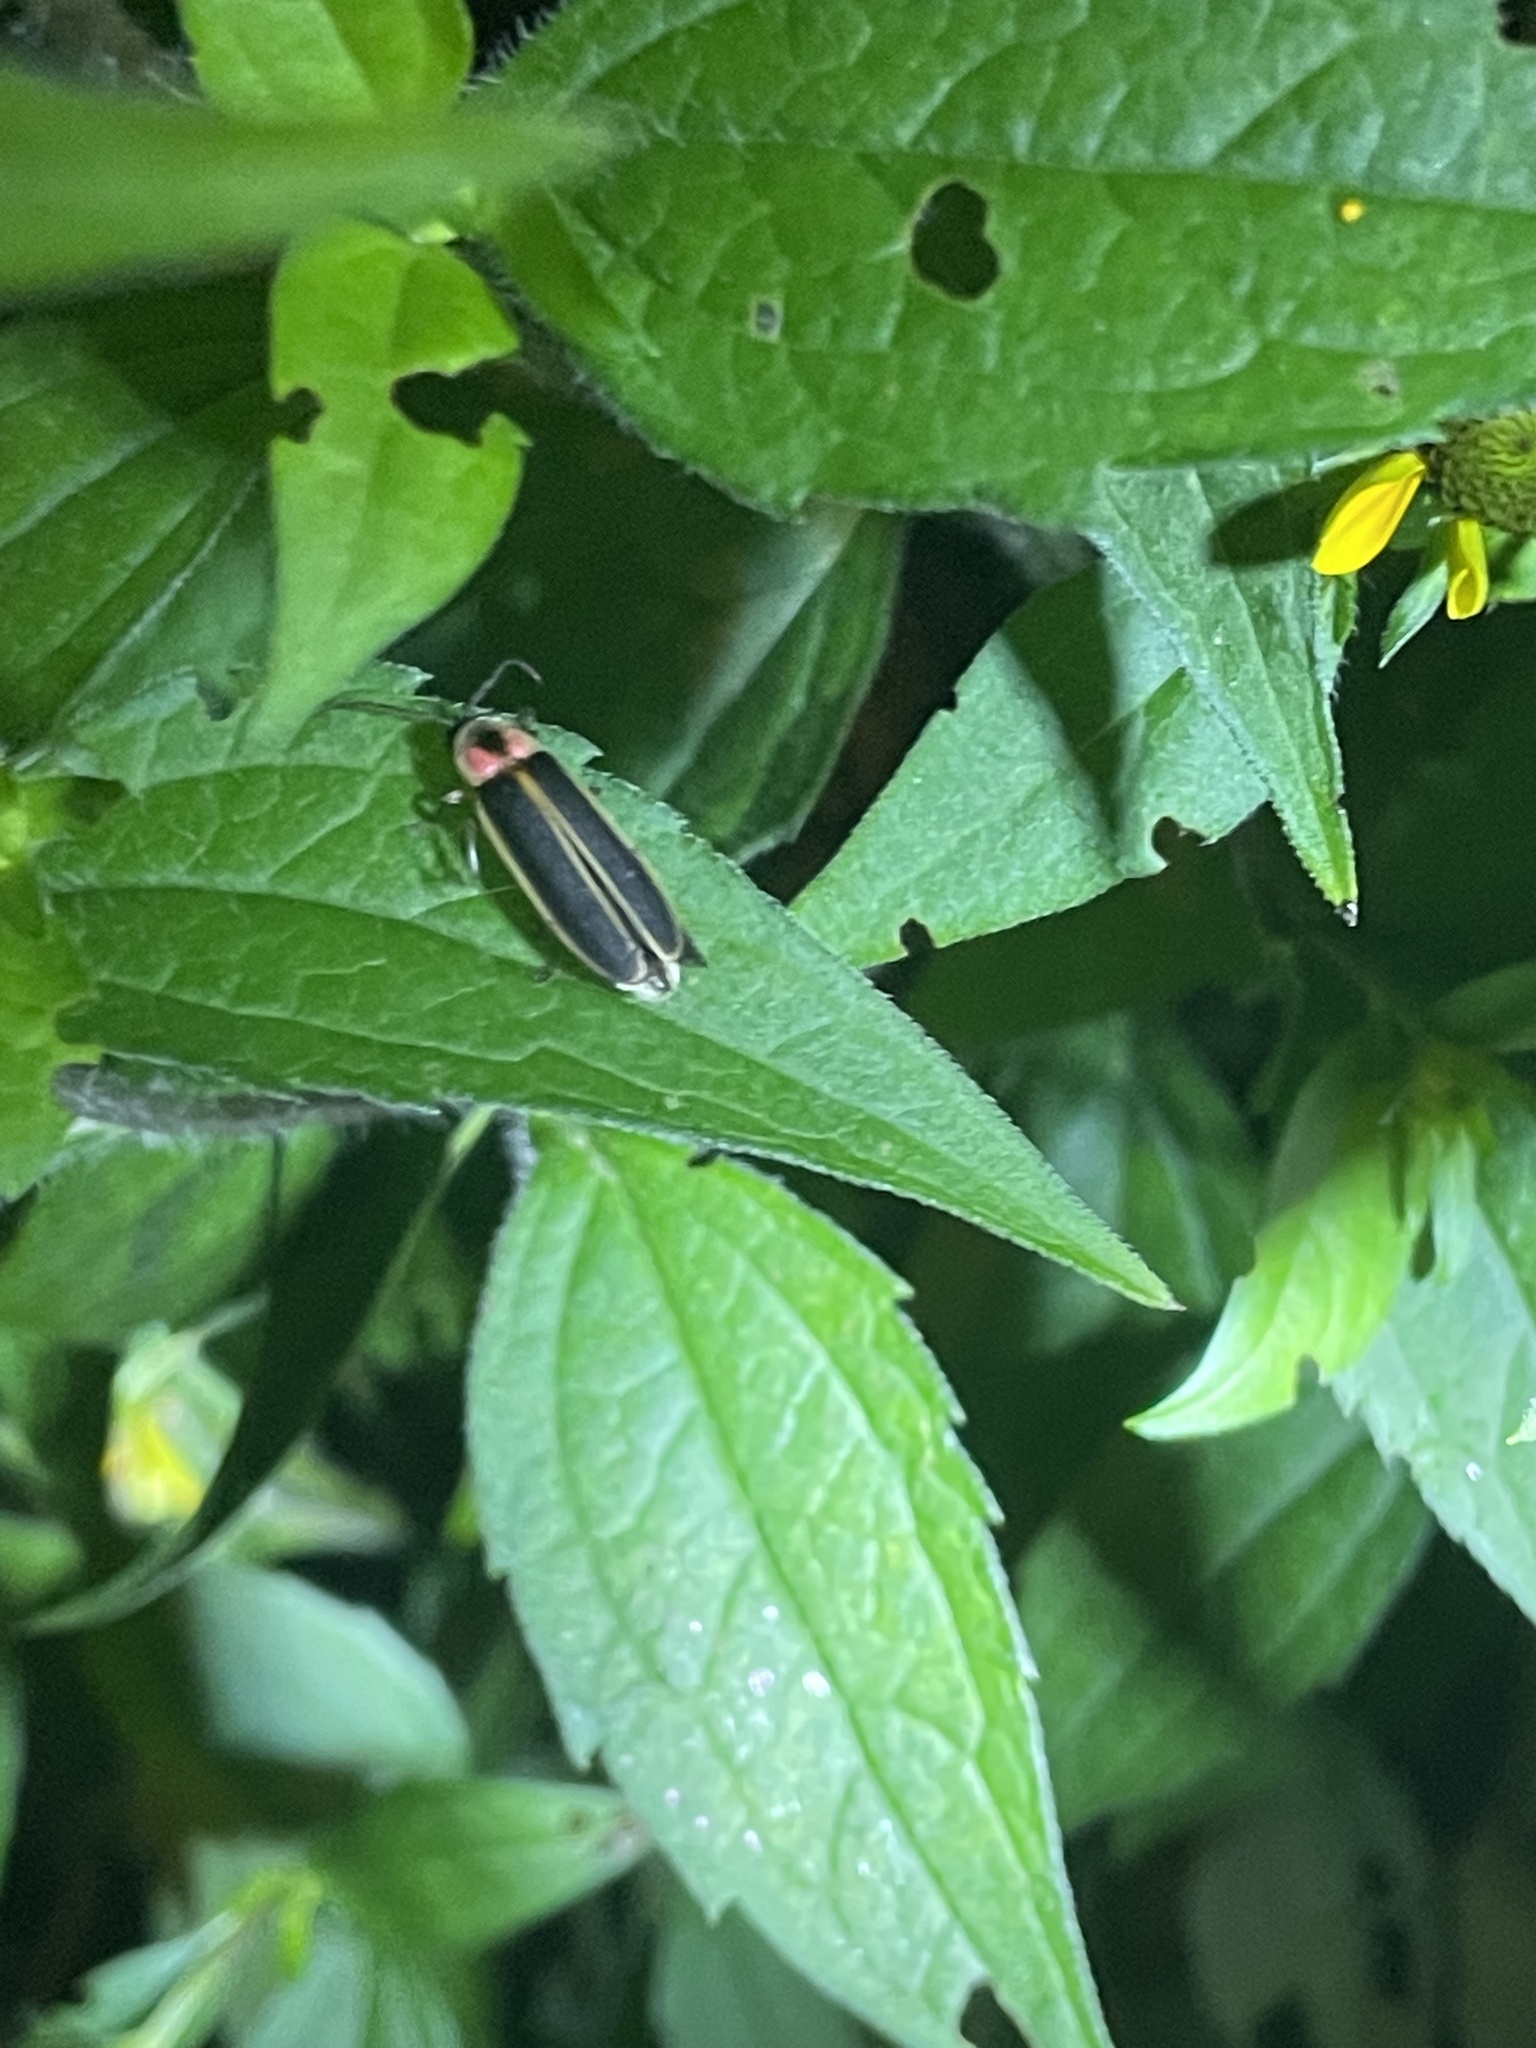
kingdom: Animalia
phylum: Arthropoda
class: Insecta
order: Coleoptera
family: Lampyridae
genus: Photinus
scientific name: Photinus pyralis
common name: Big dipper firefly
